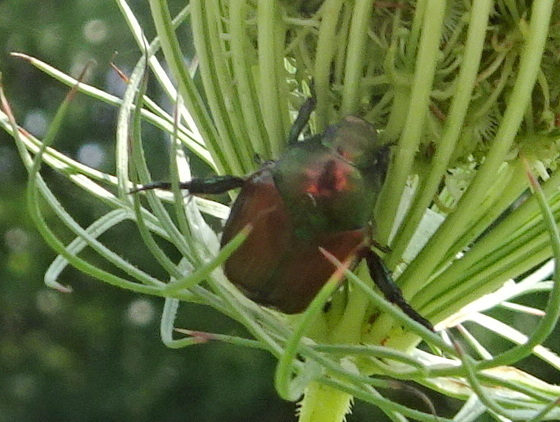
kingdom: Animalia
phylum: Arthropoda
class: Insecta
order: Coleoptera
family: Scarabaeidae
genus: Popillia
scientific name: Popillia japonica
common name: Japanese beetle
